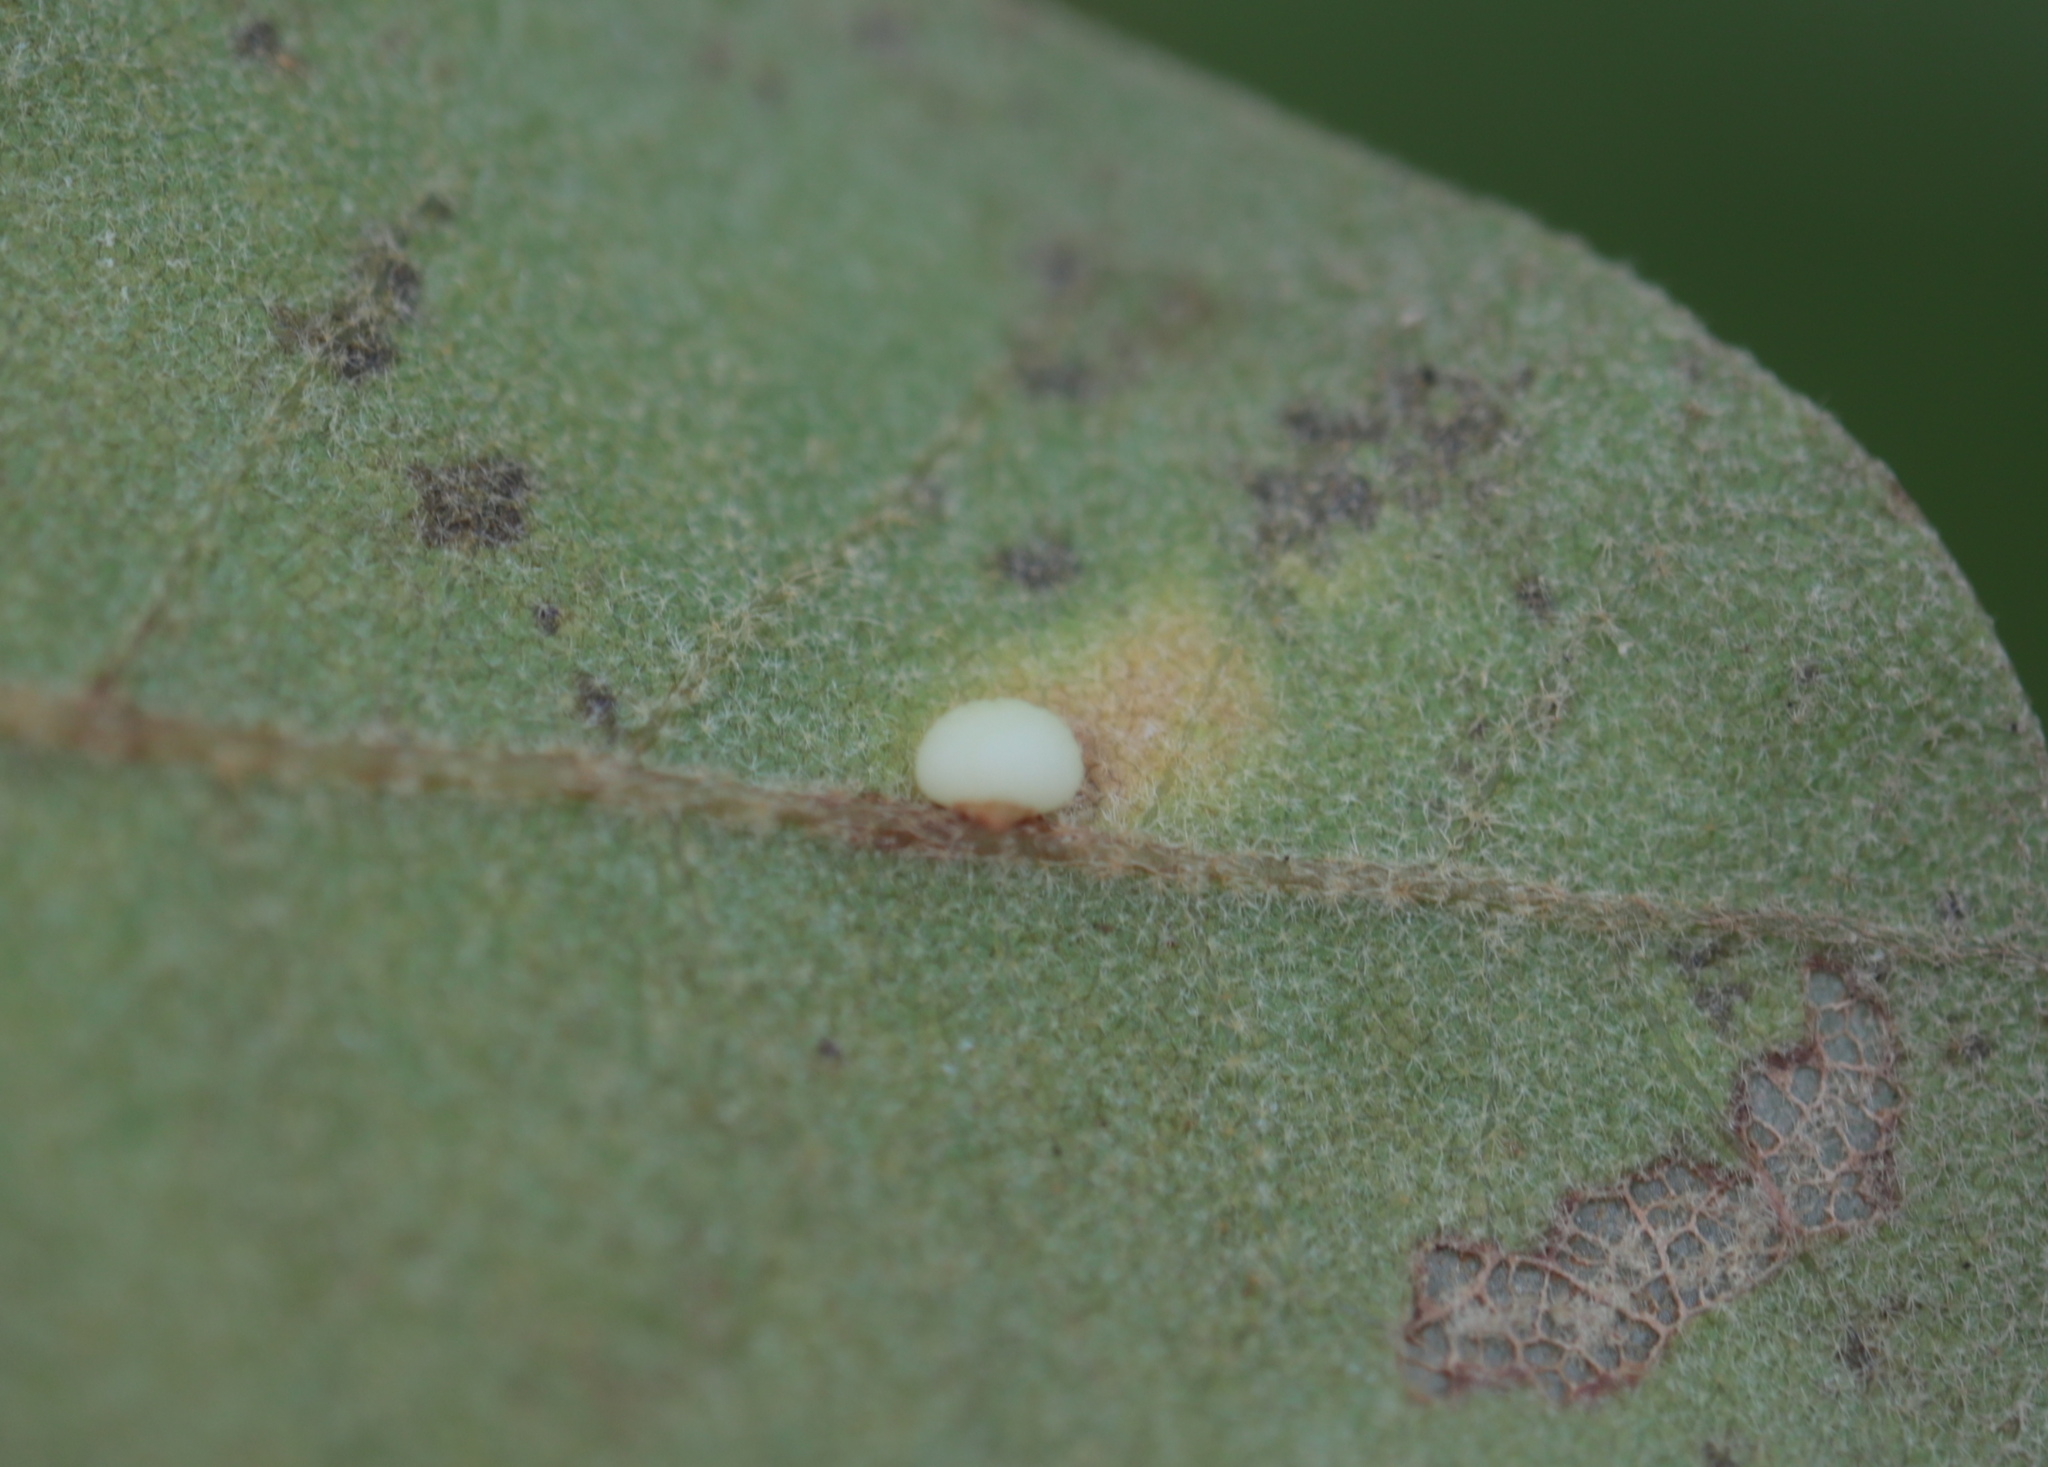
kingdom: Animalia
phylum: Arthropoda
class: Insecta
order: Hymenoptera
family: Cynipidae
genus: Zopheroteras
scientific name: Zopheroteras
